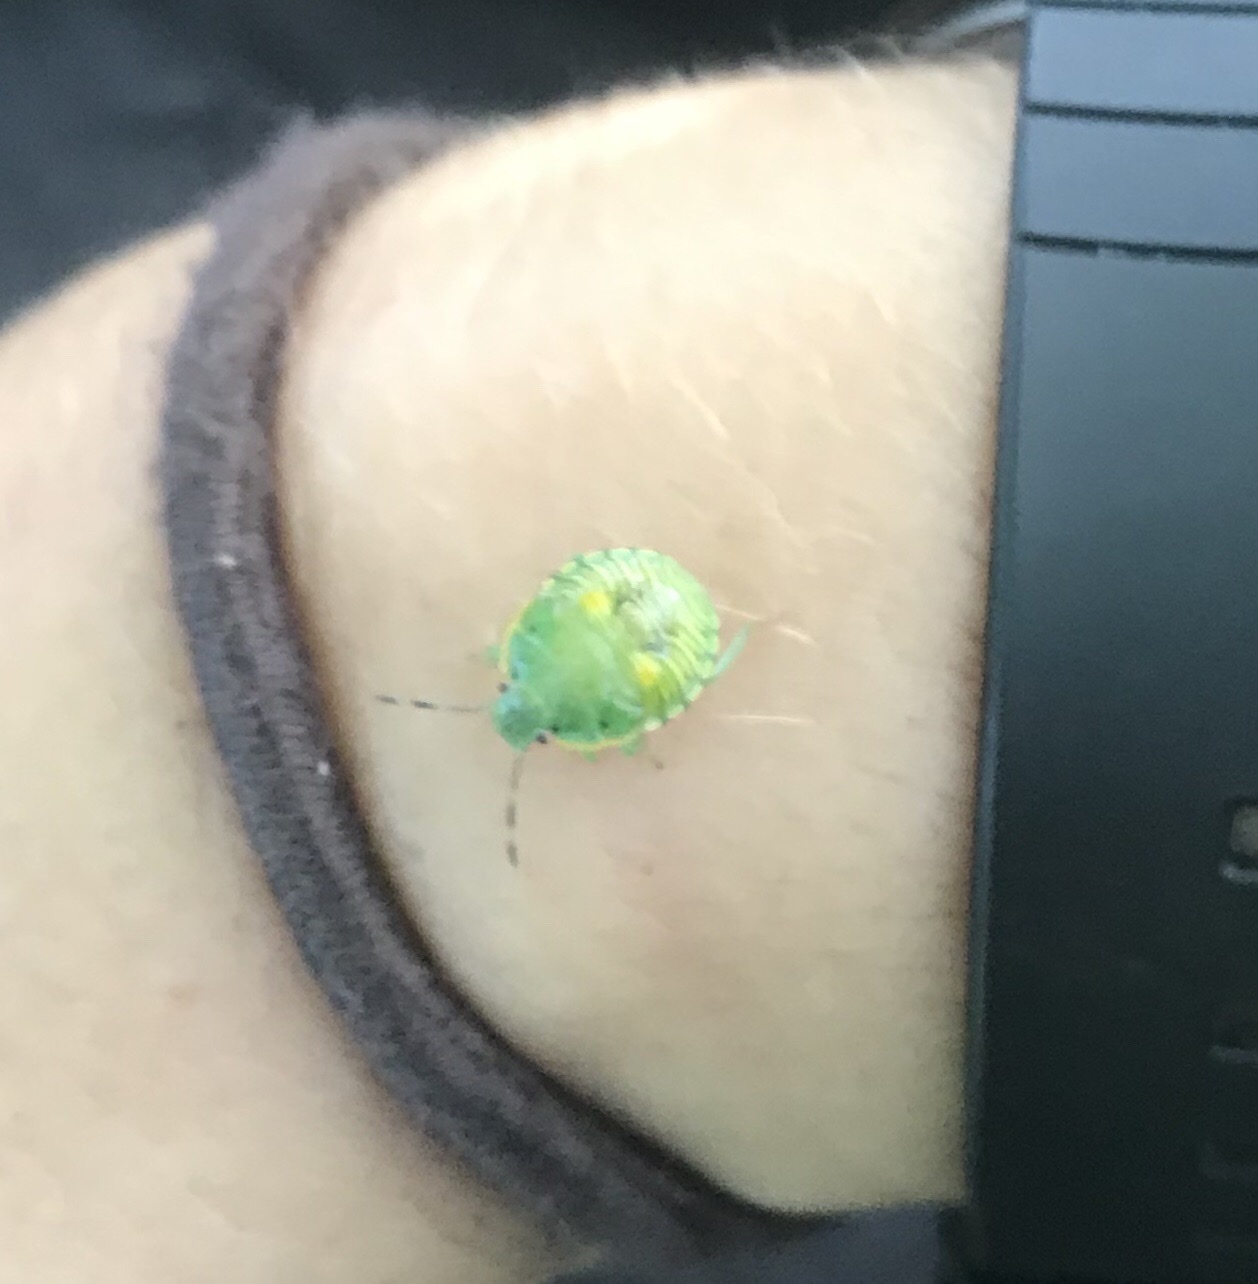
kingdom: Animalia
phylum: Arthropoda
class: Insecta
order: Hemiptera
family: Pentatomidae
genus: Chinavia
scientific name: Chinavia hilaris
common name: Green stink bug
